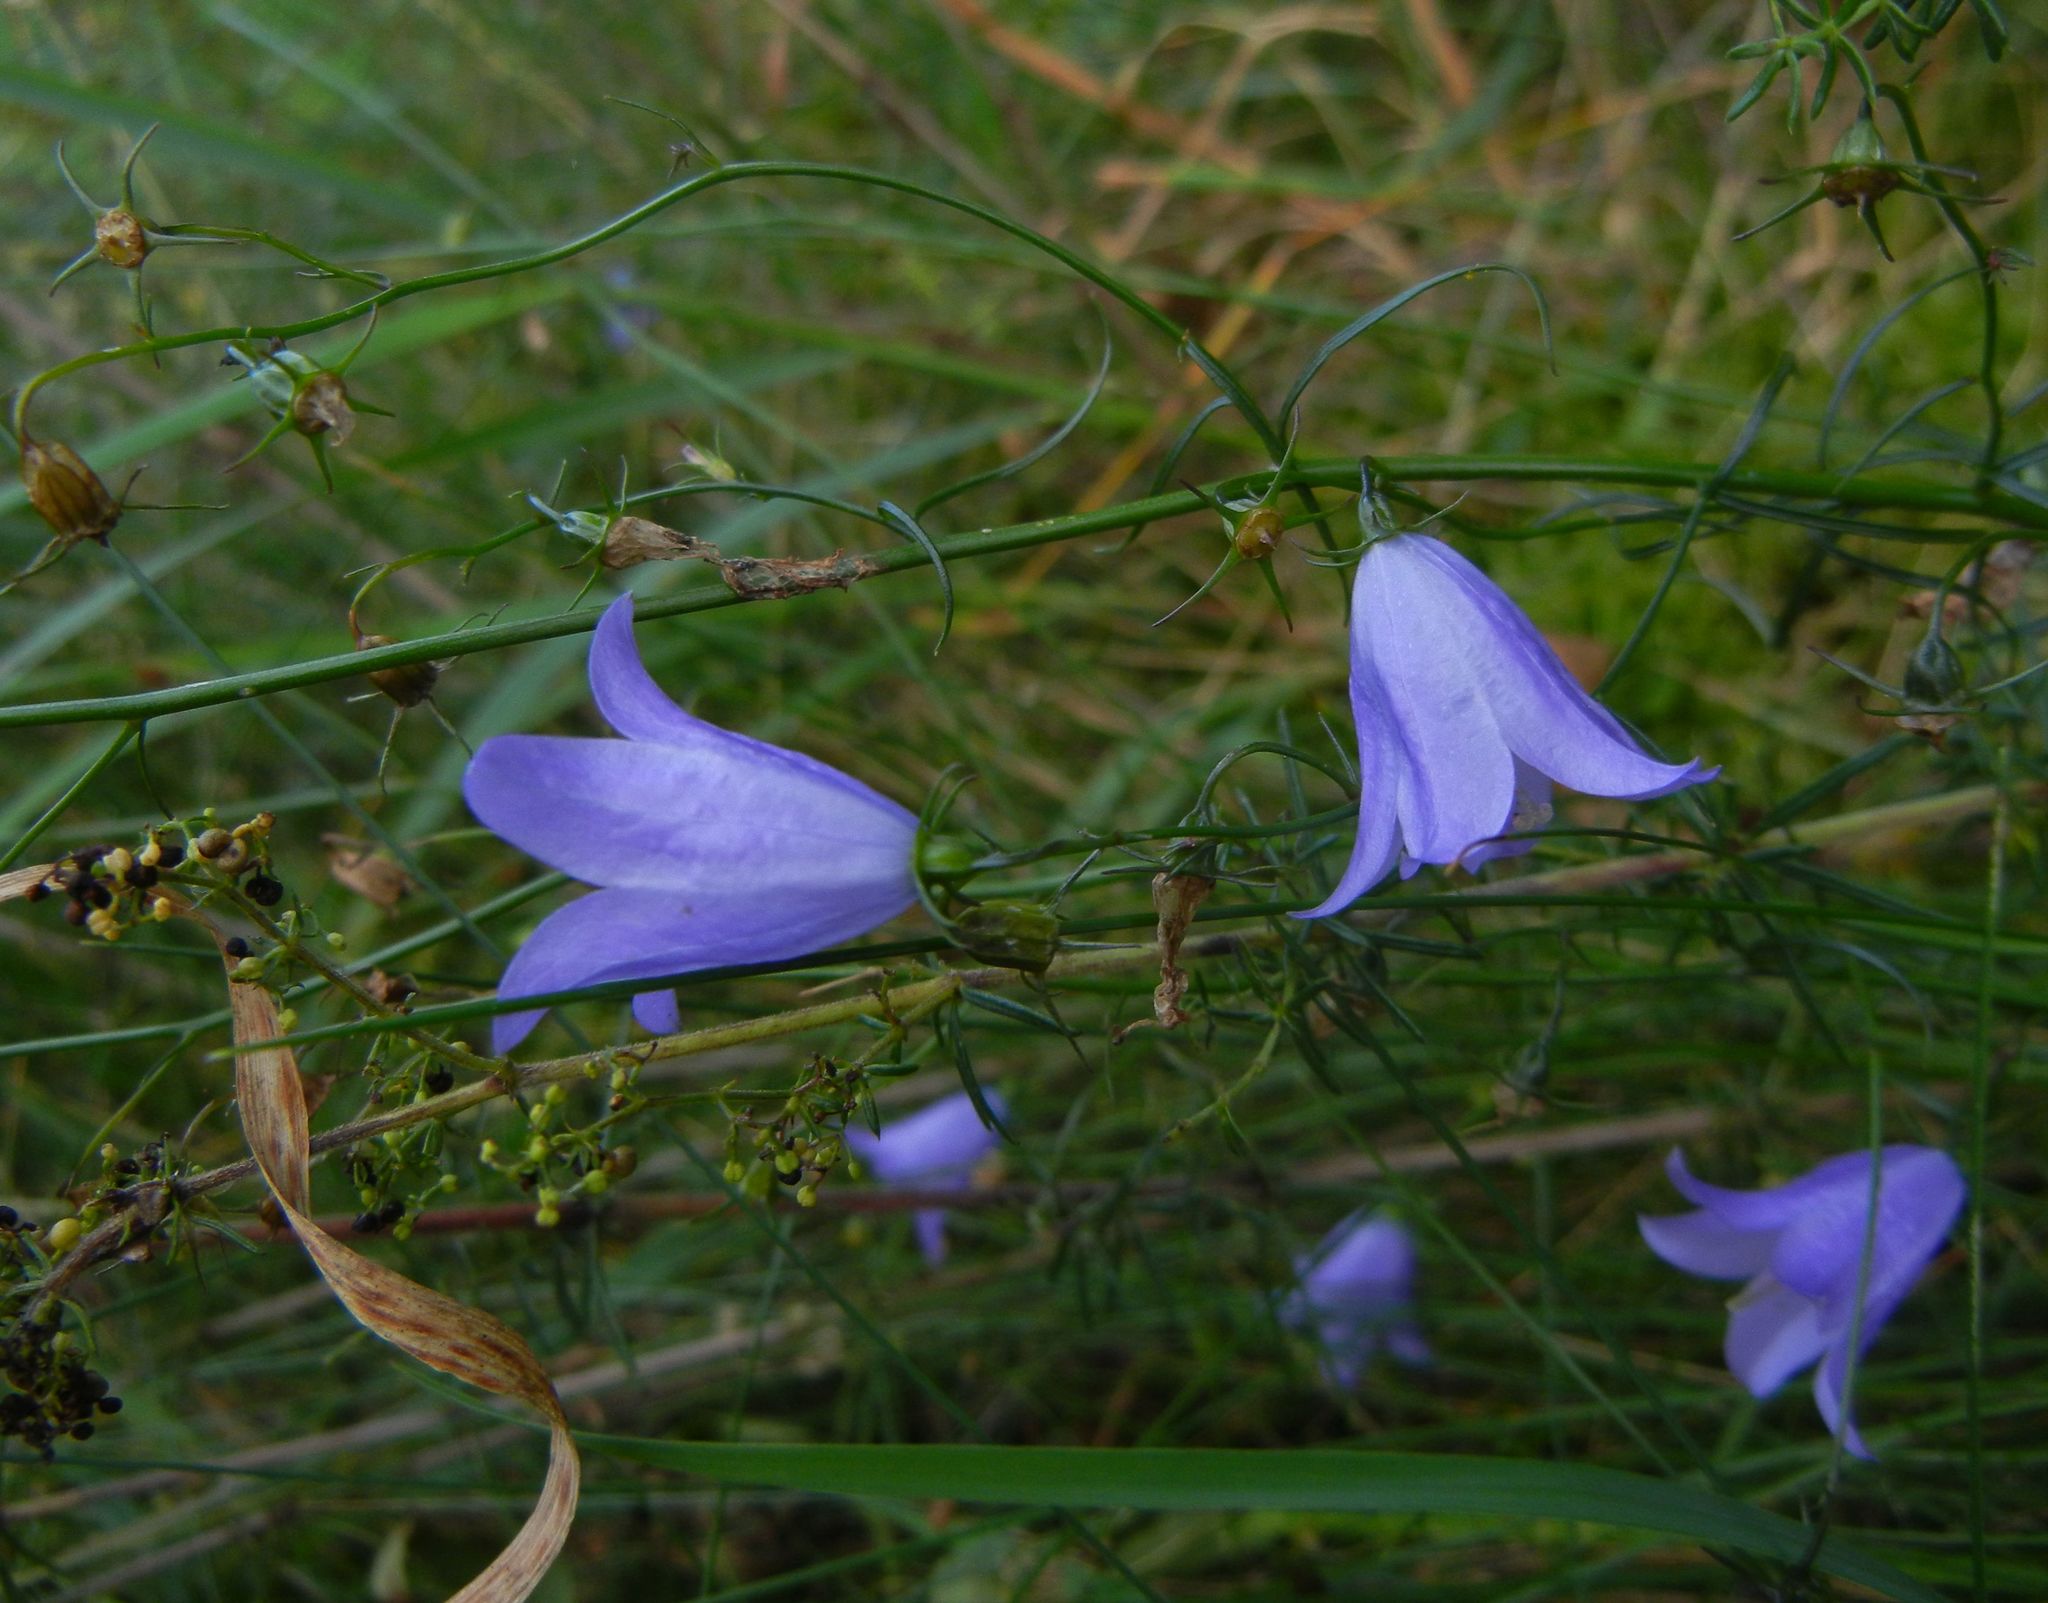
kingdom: Plantae
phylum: Tracheophyta
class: Magnoliopsida
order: Asterales
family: Campanulaceae
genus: Campanula
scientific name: Campanula rotundifolia
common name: Harebell
